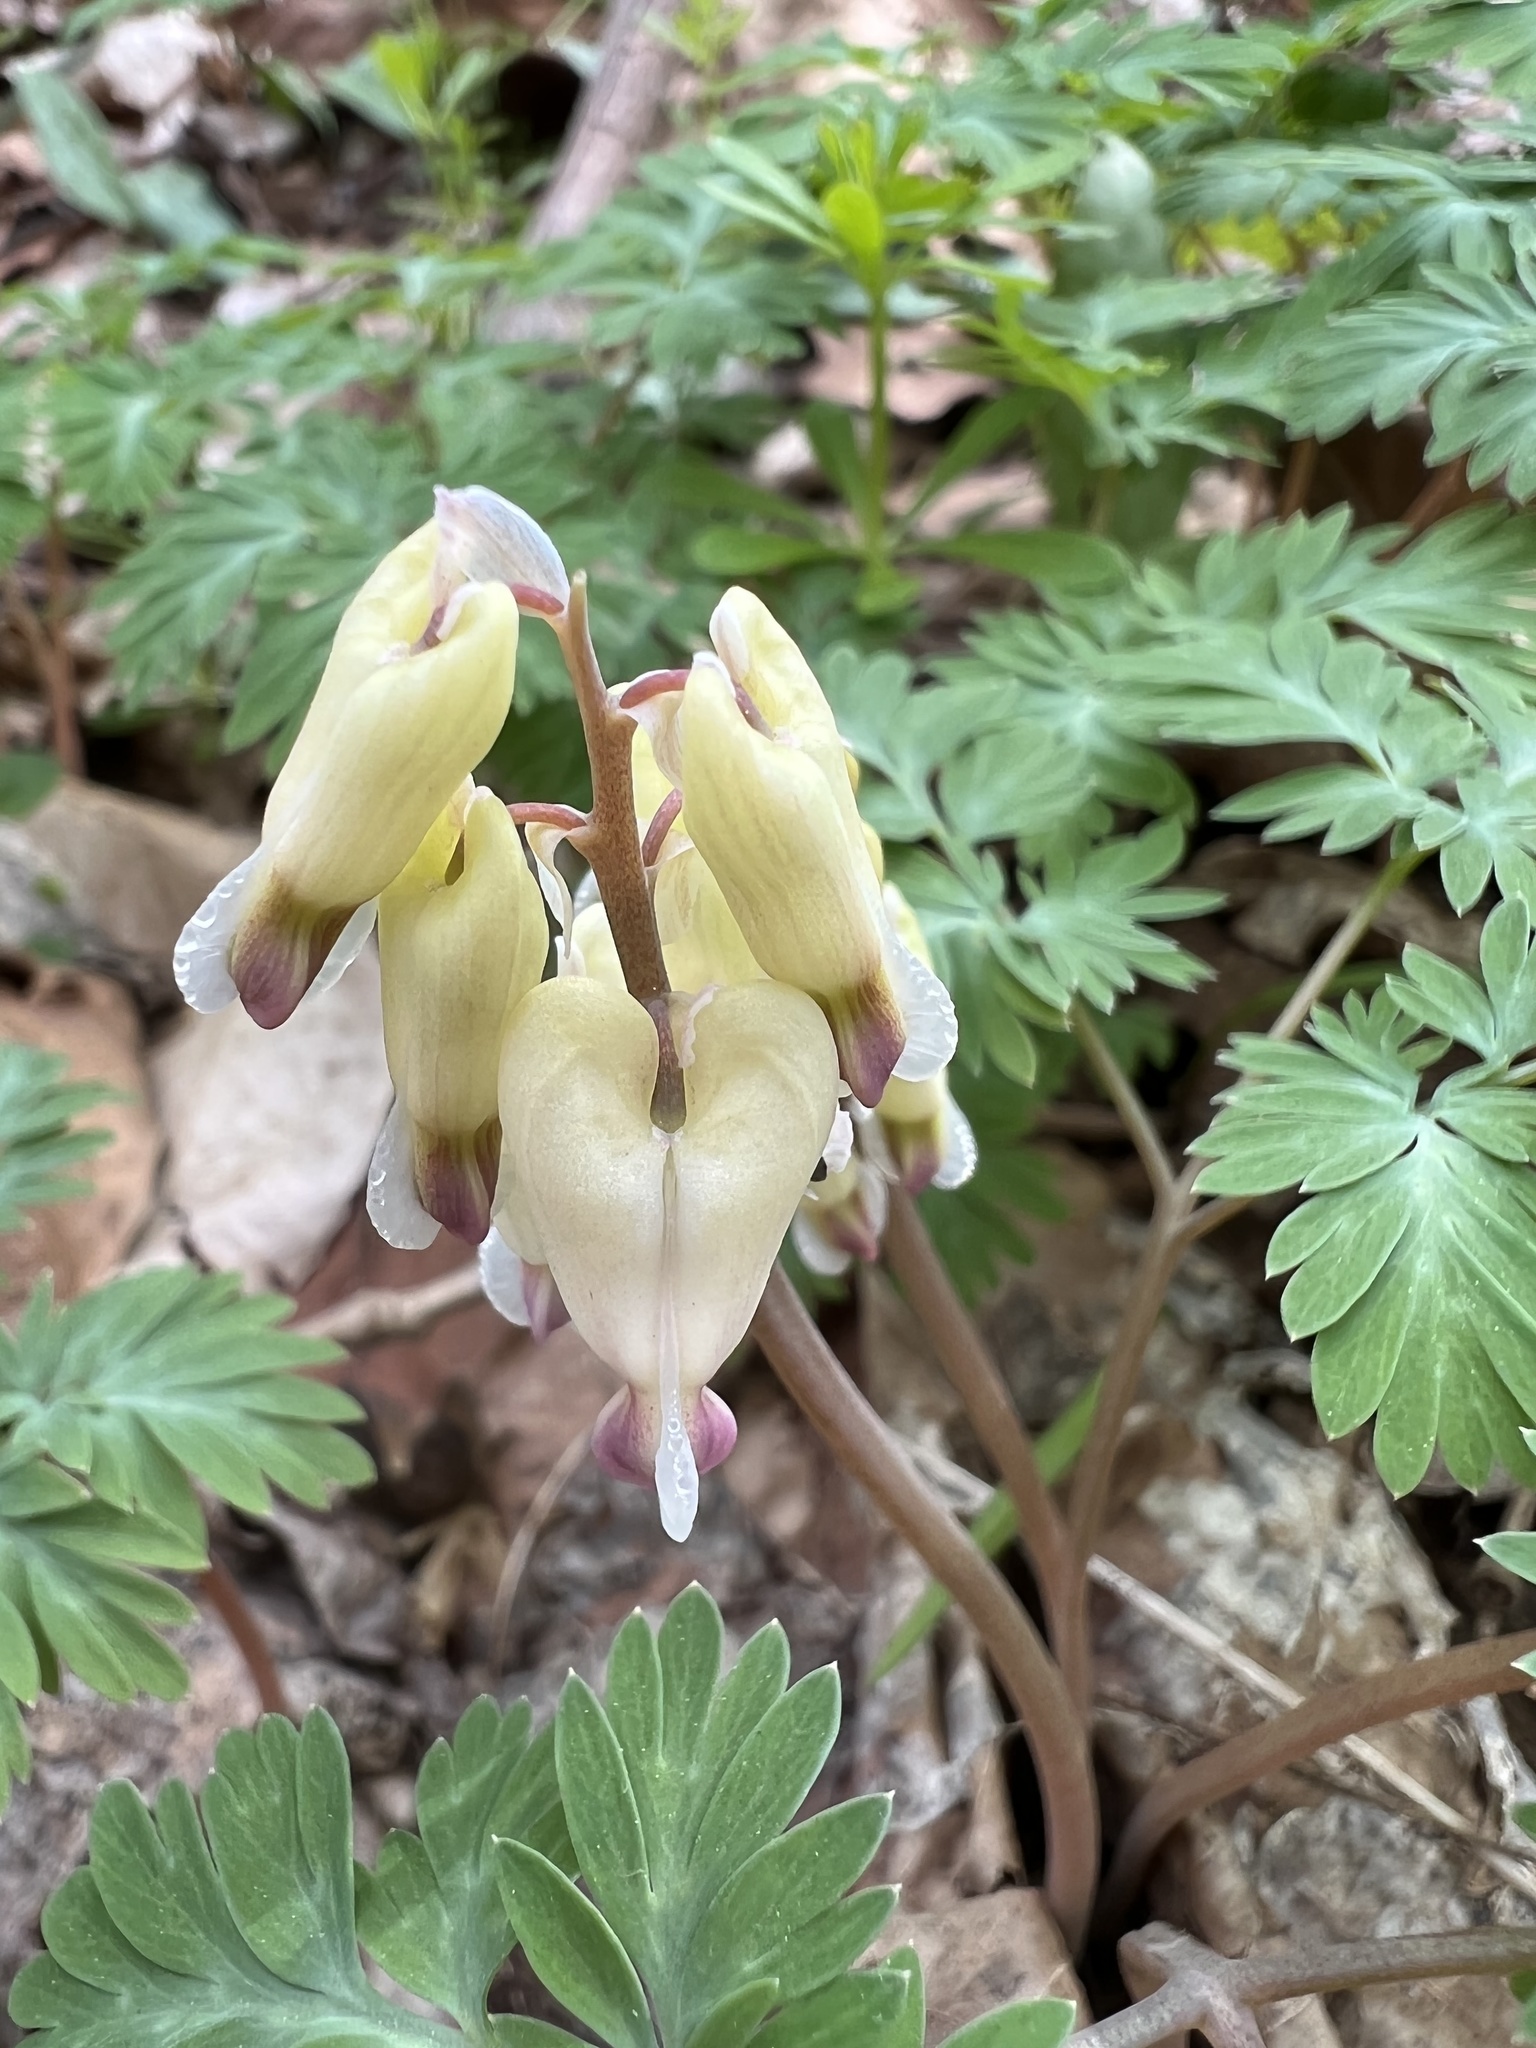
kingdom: Plantae
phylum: Tracheophyta
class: Magnoliopsida
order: Ranunculales
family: Papaveraceae
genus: Dicentra
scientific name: Dicentra canadensis
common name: Squirrel-corn
